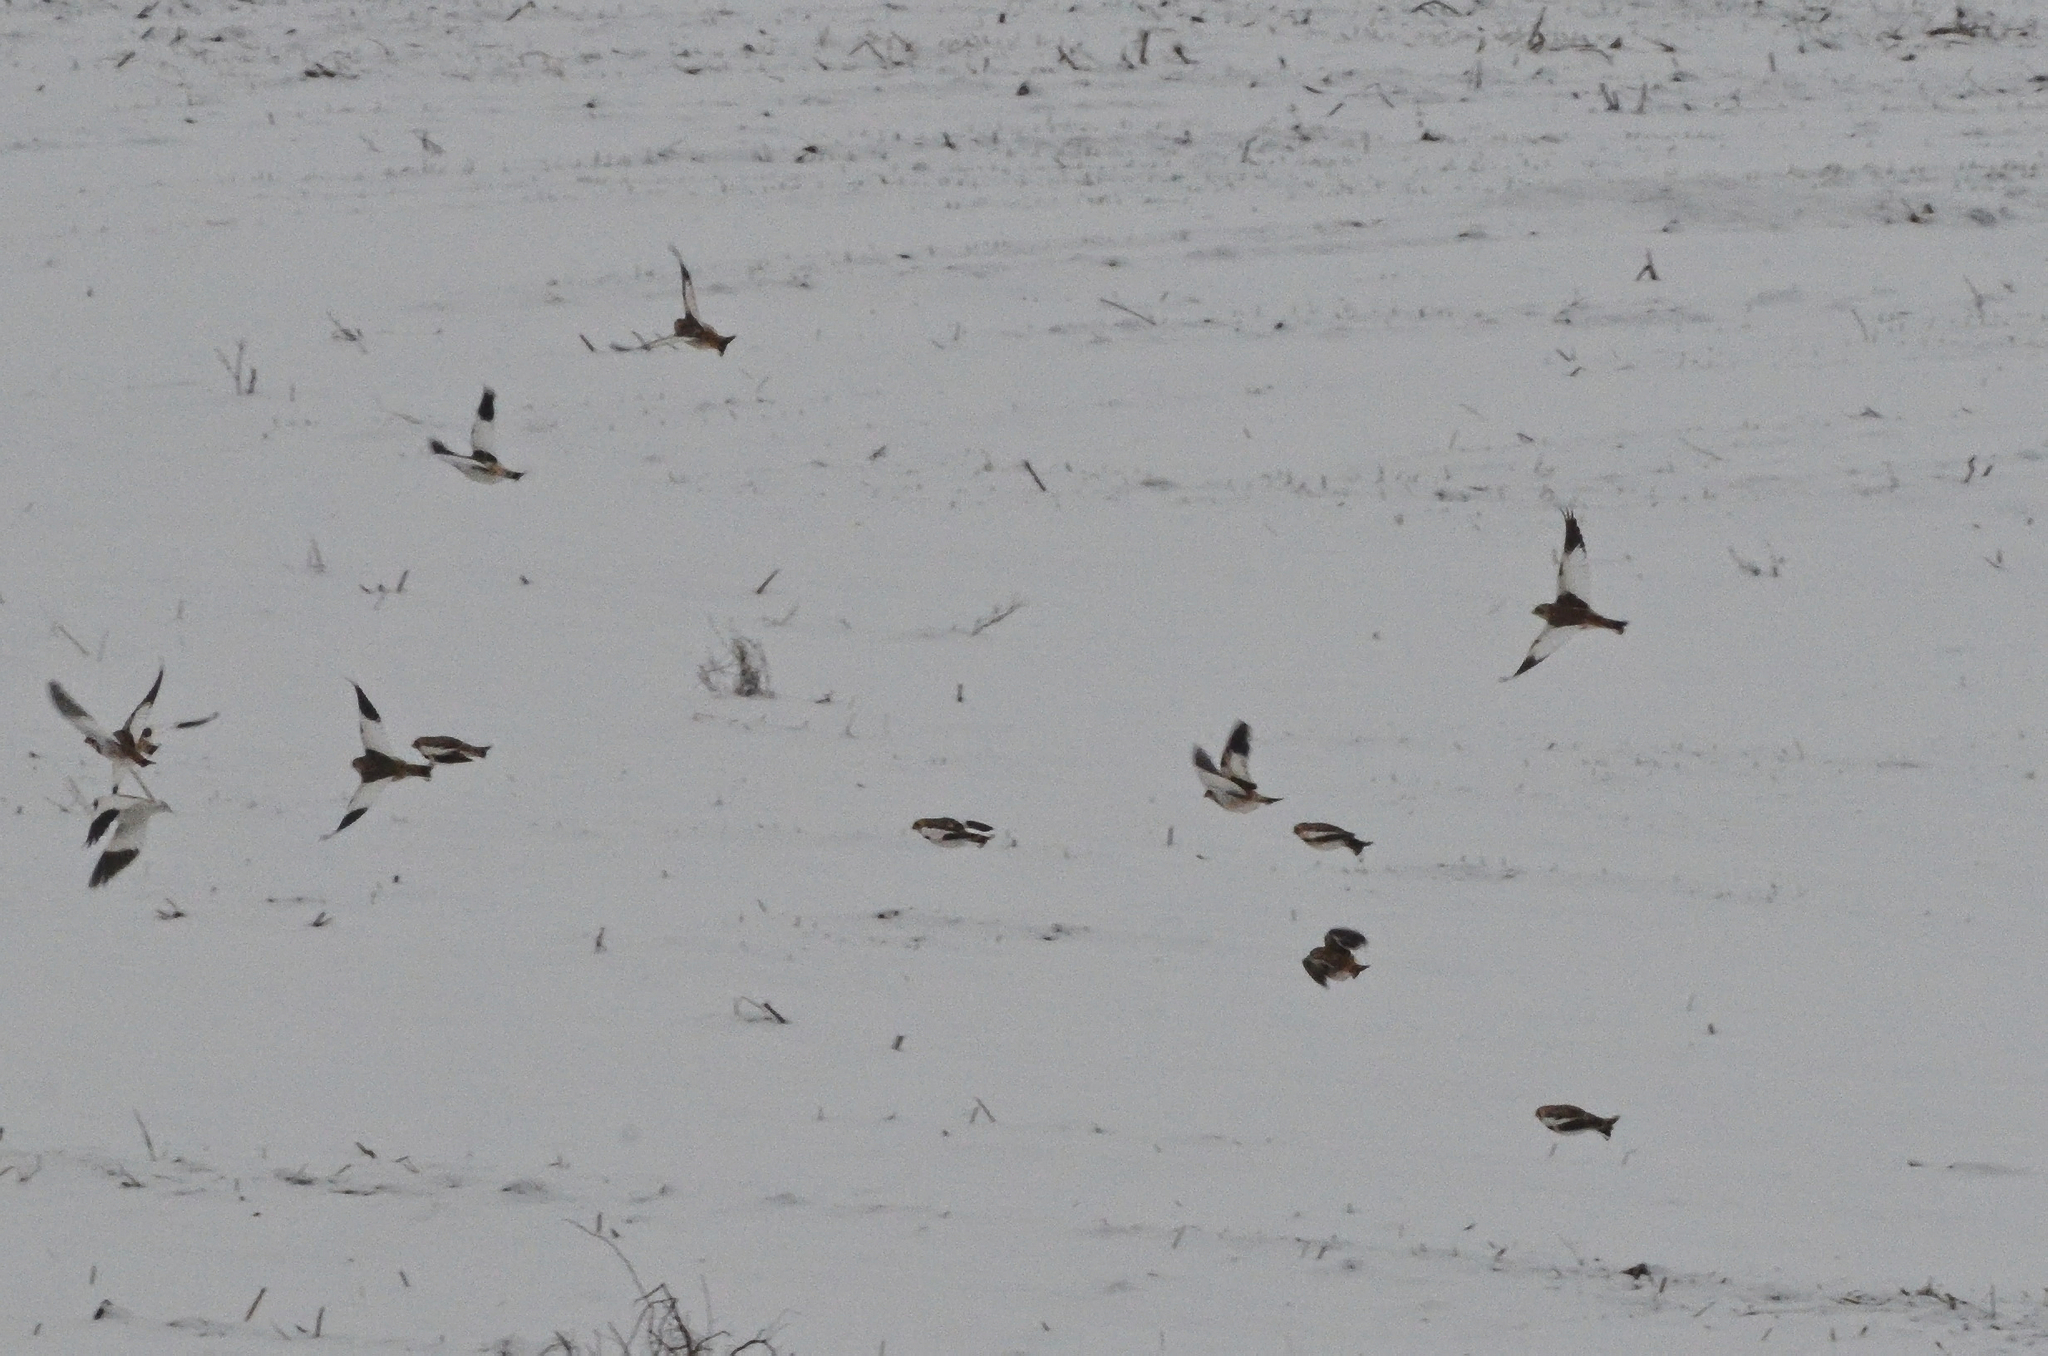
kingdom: Animalia
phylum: Chordata
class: Aves
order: Passeriformes
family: Calcariidae
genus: Plectrophenax
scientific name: Plectrophenax nivalis
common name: Snow bunting
